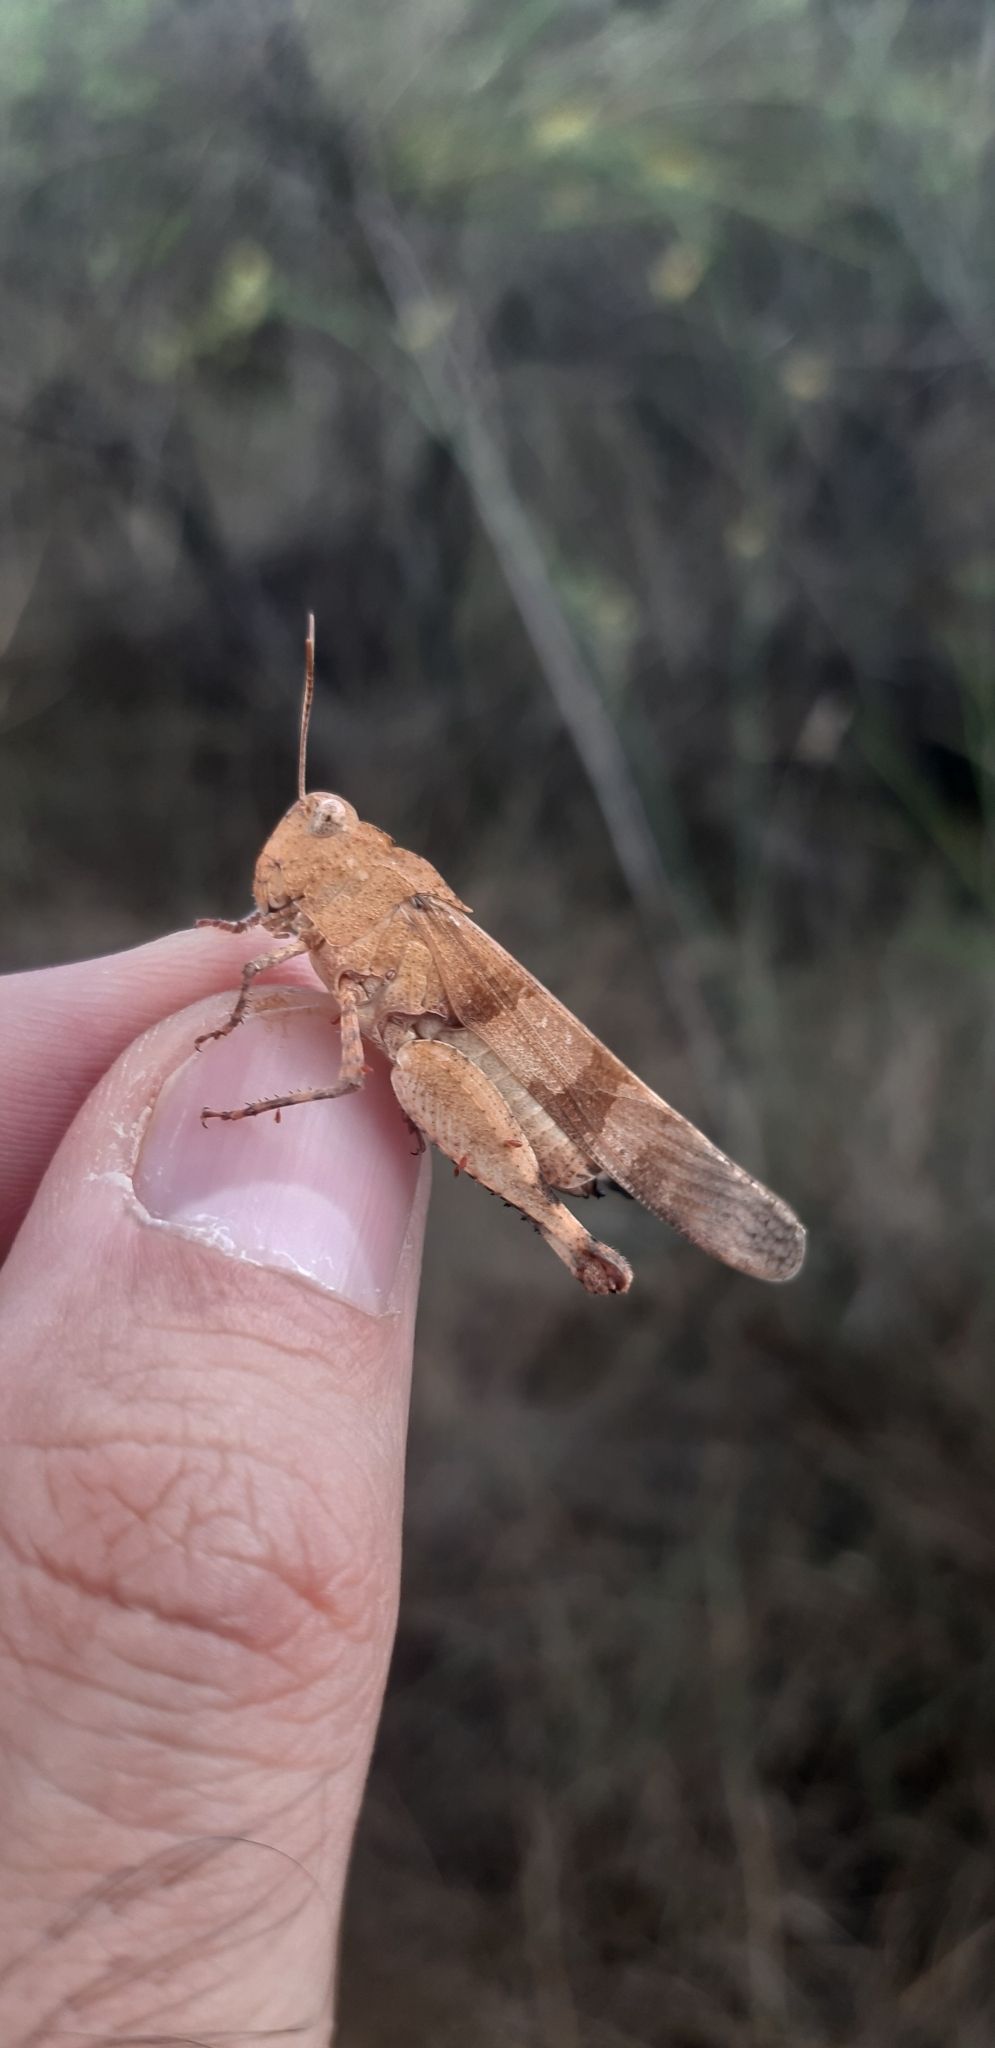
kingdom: Animalia
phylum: Arthropoda
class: Insecta
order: Orthoptera
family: Acrididae
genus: Oedipoda
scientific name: Oedipoda caerulescens
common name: Blue-winged grasshopper
